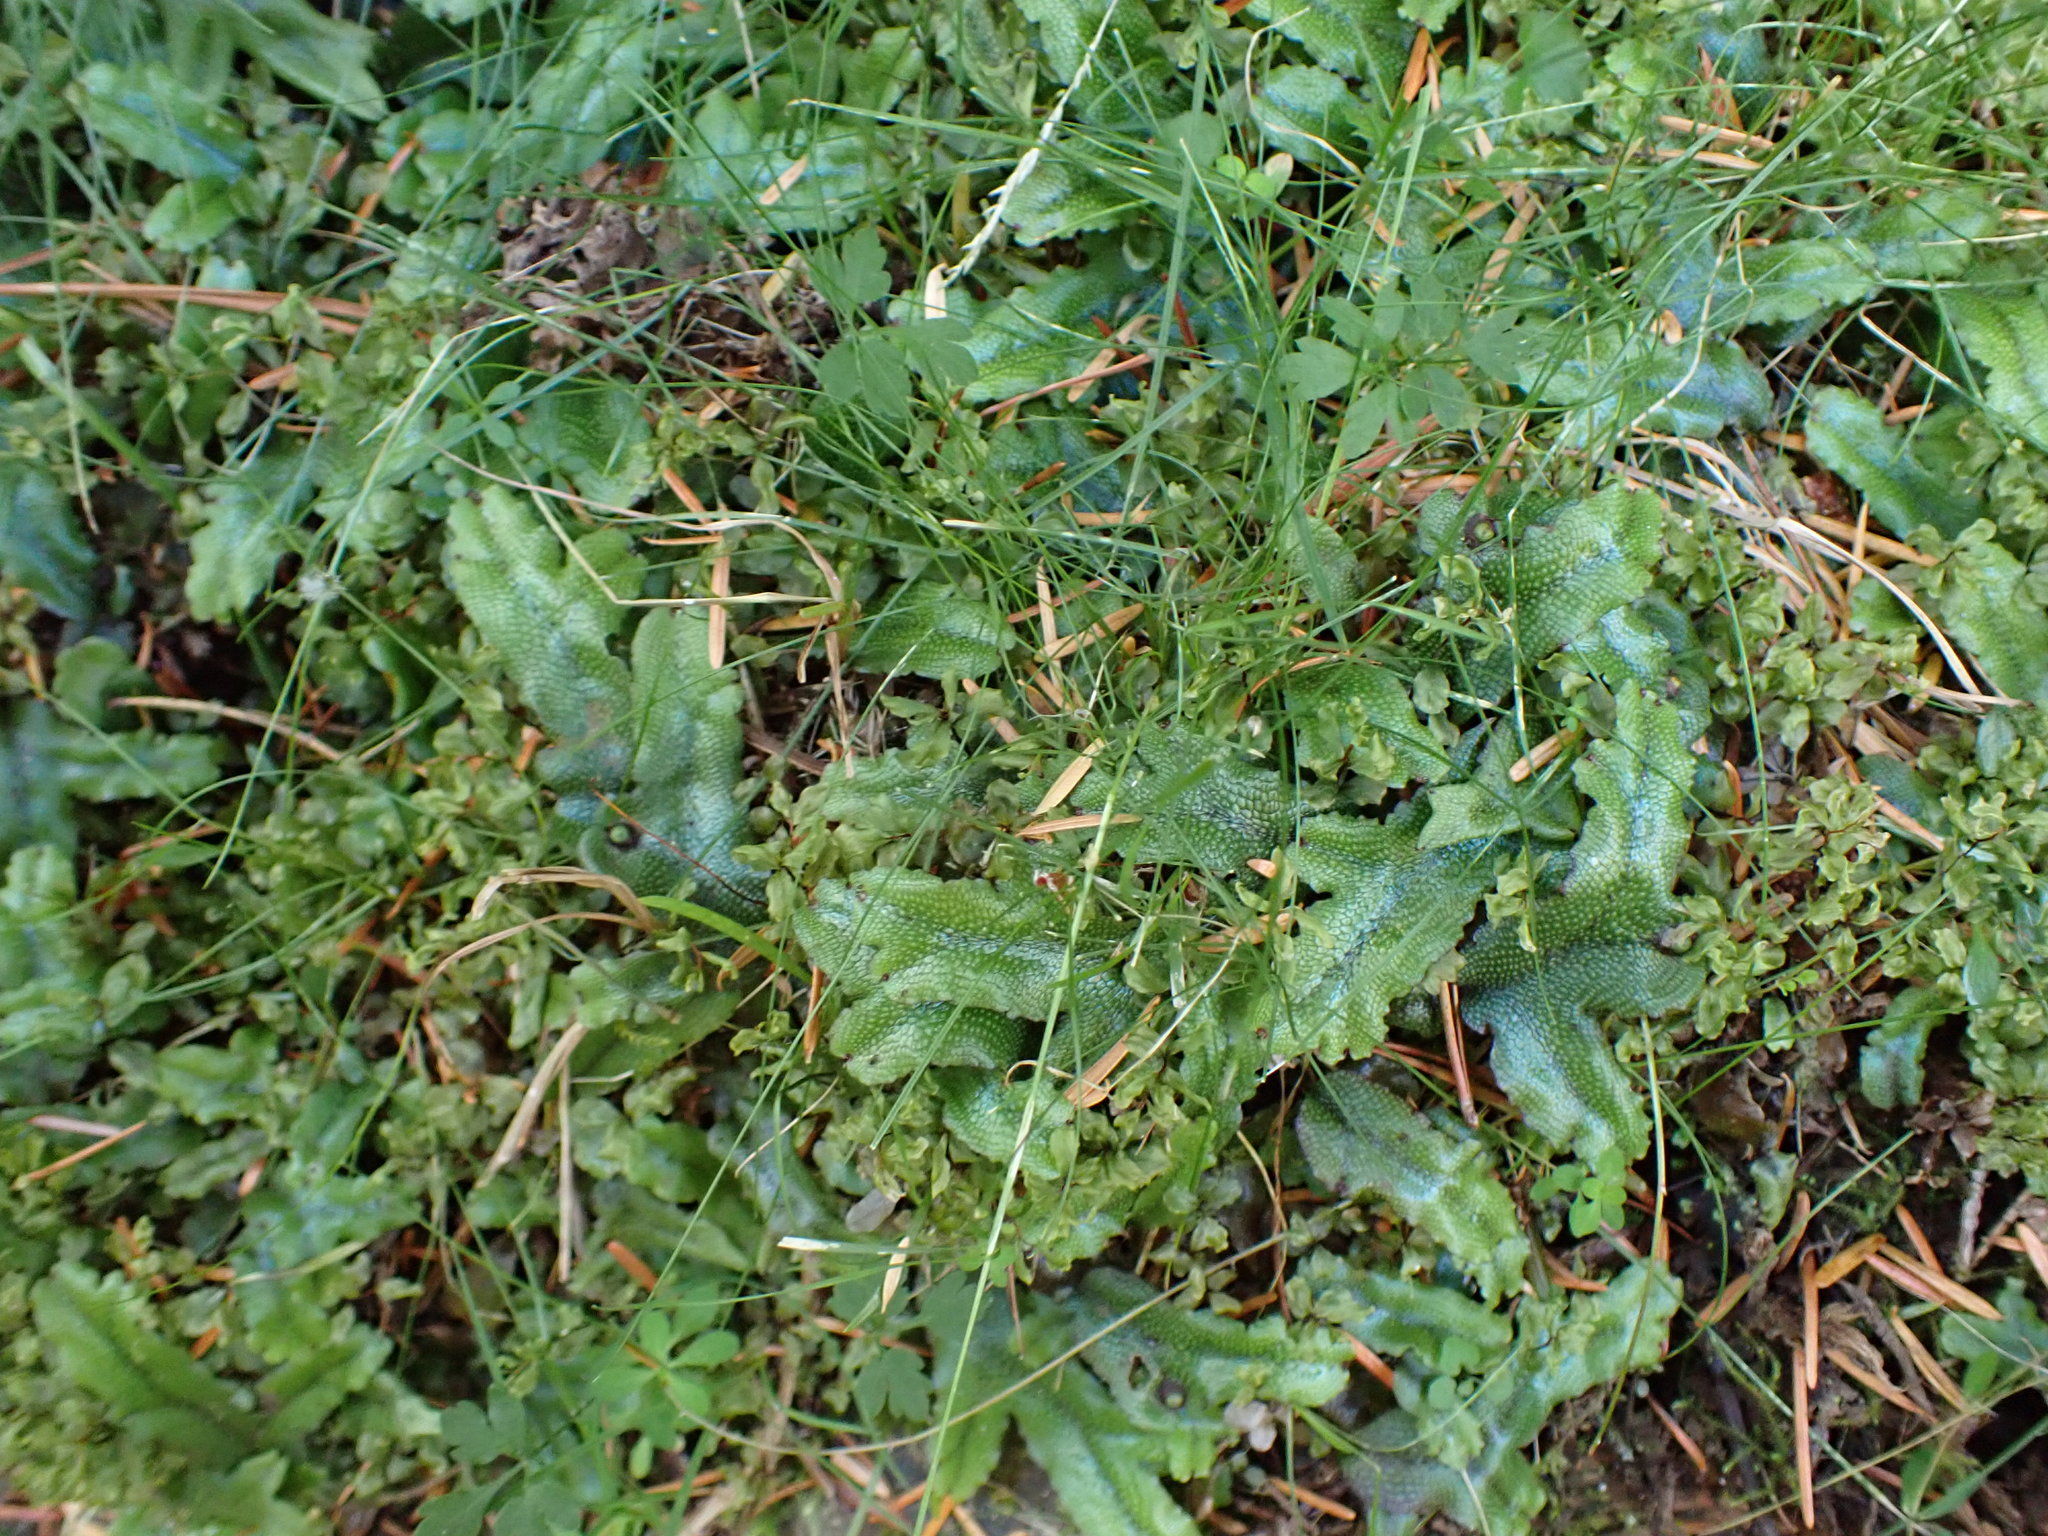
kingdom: Plantae
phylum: Marchantiophyta
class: Marchantiopsida
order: Marchantiales
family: Conocephalaceae
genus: Conocephalum
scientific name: Conocephalum salebrosum
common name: Cat-tongue liverwort
